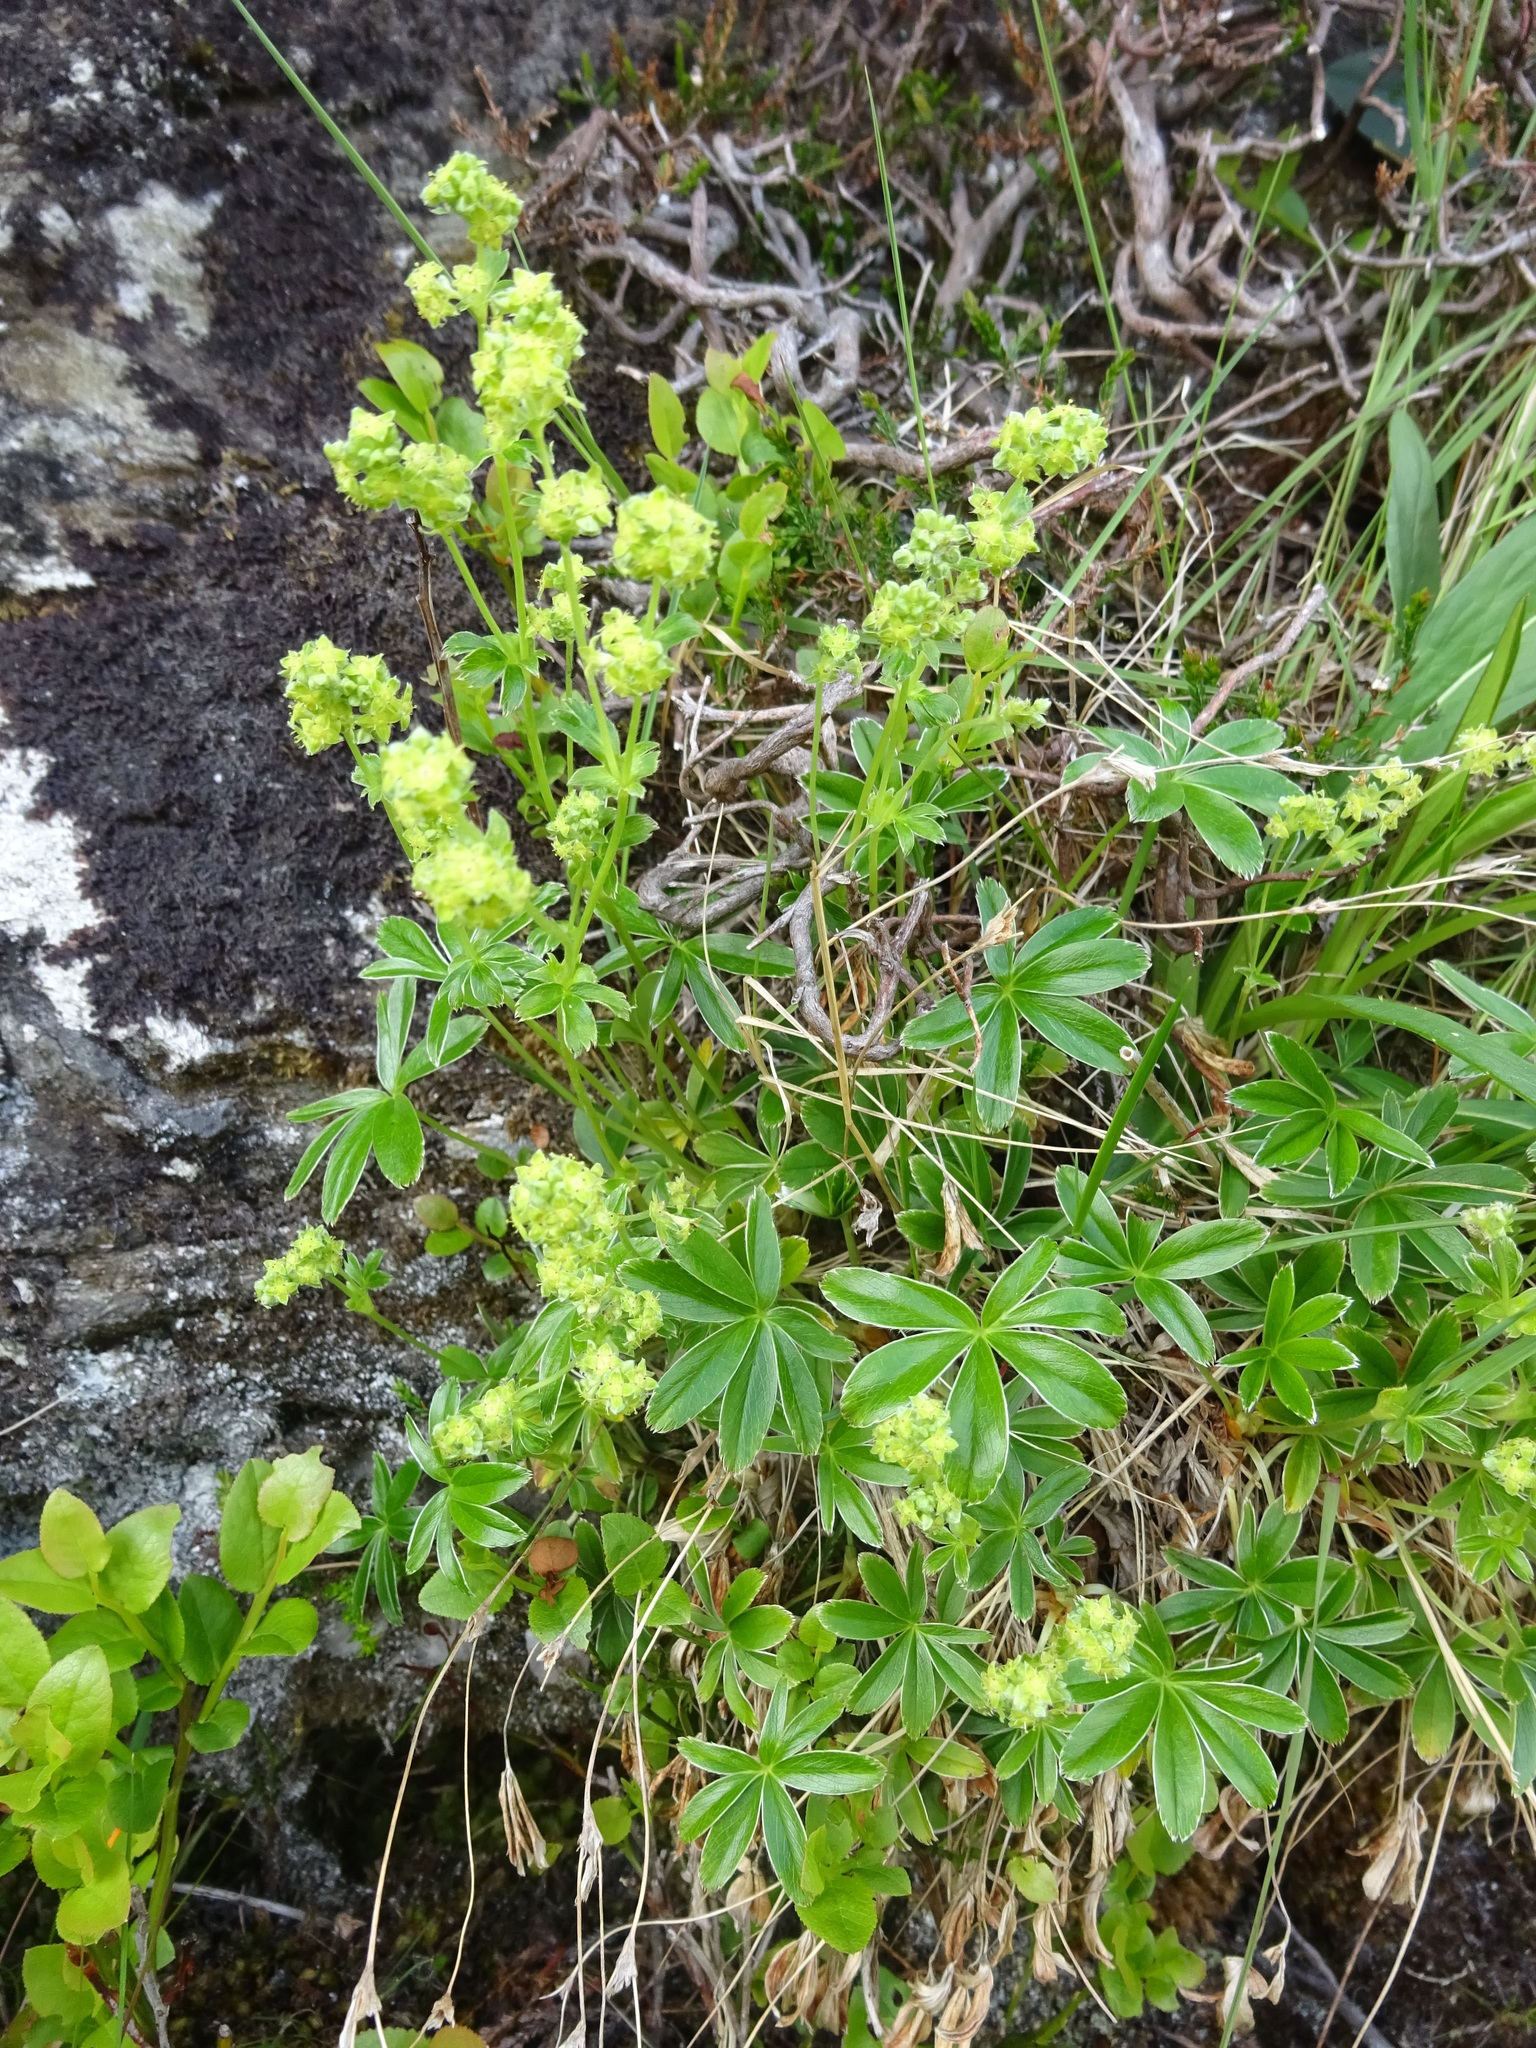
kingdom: Plantae
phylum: Tracheophyta
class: Magnoliopsida
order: Rosales
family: Rosaceae
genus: Alchemilla
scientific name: Alchemilla alpina
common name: Alpine lady's-mantle
